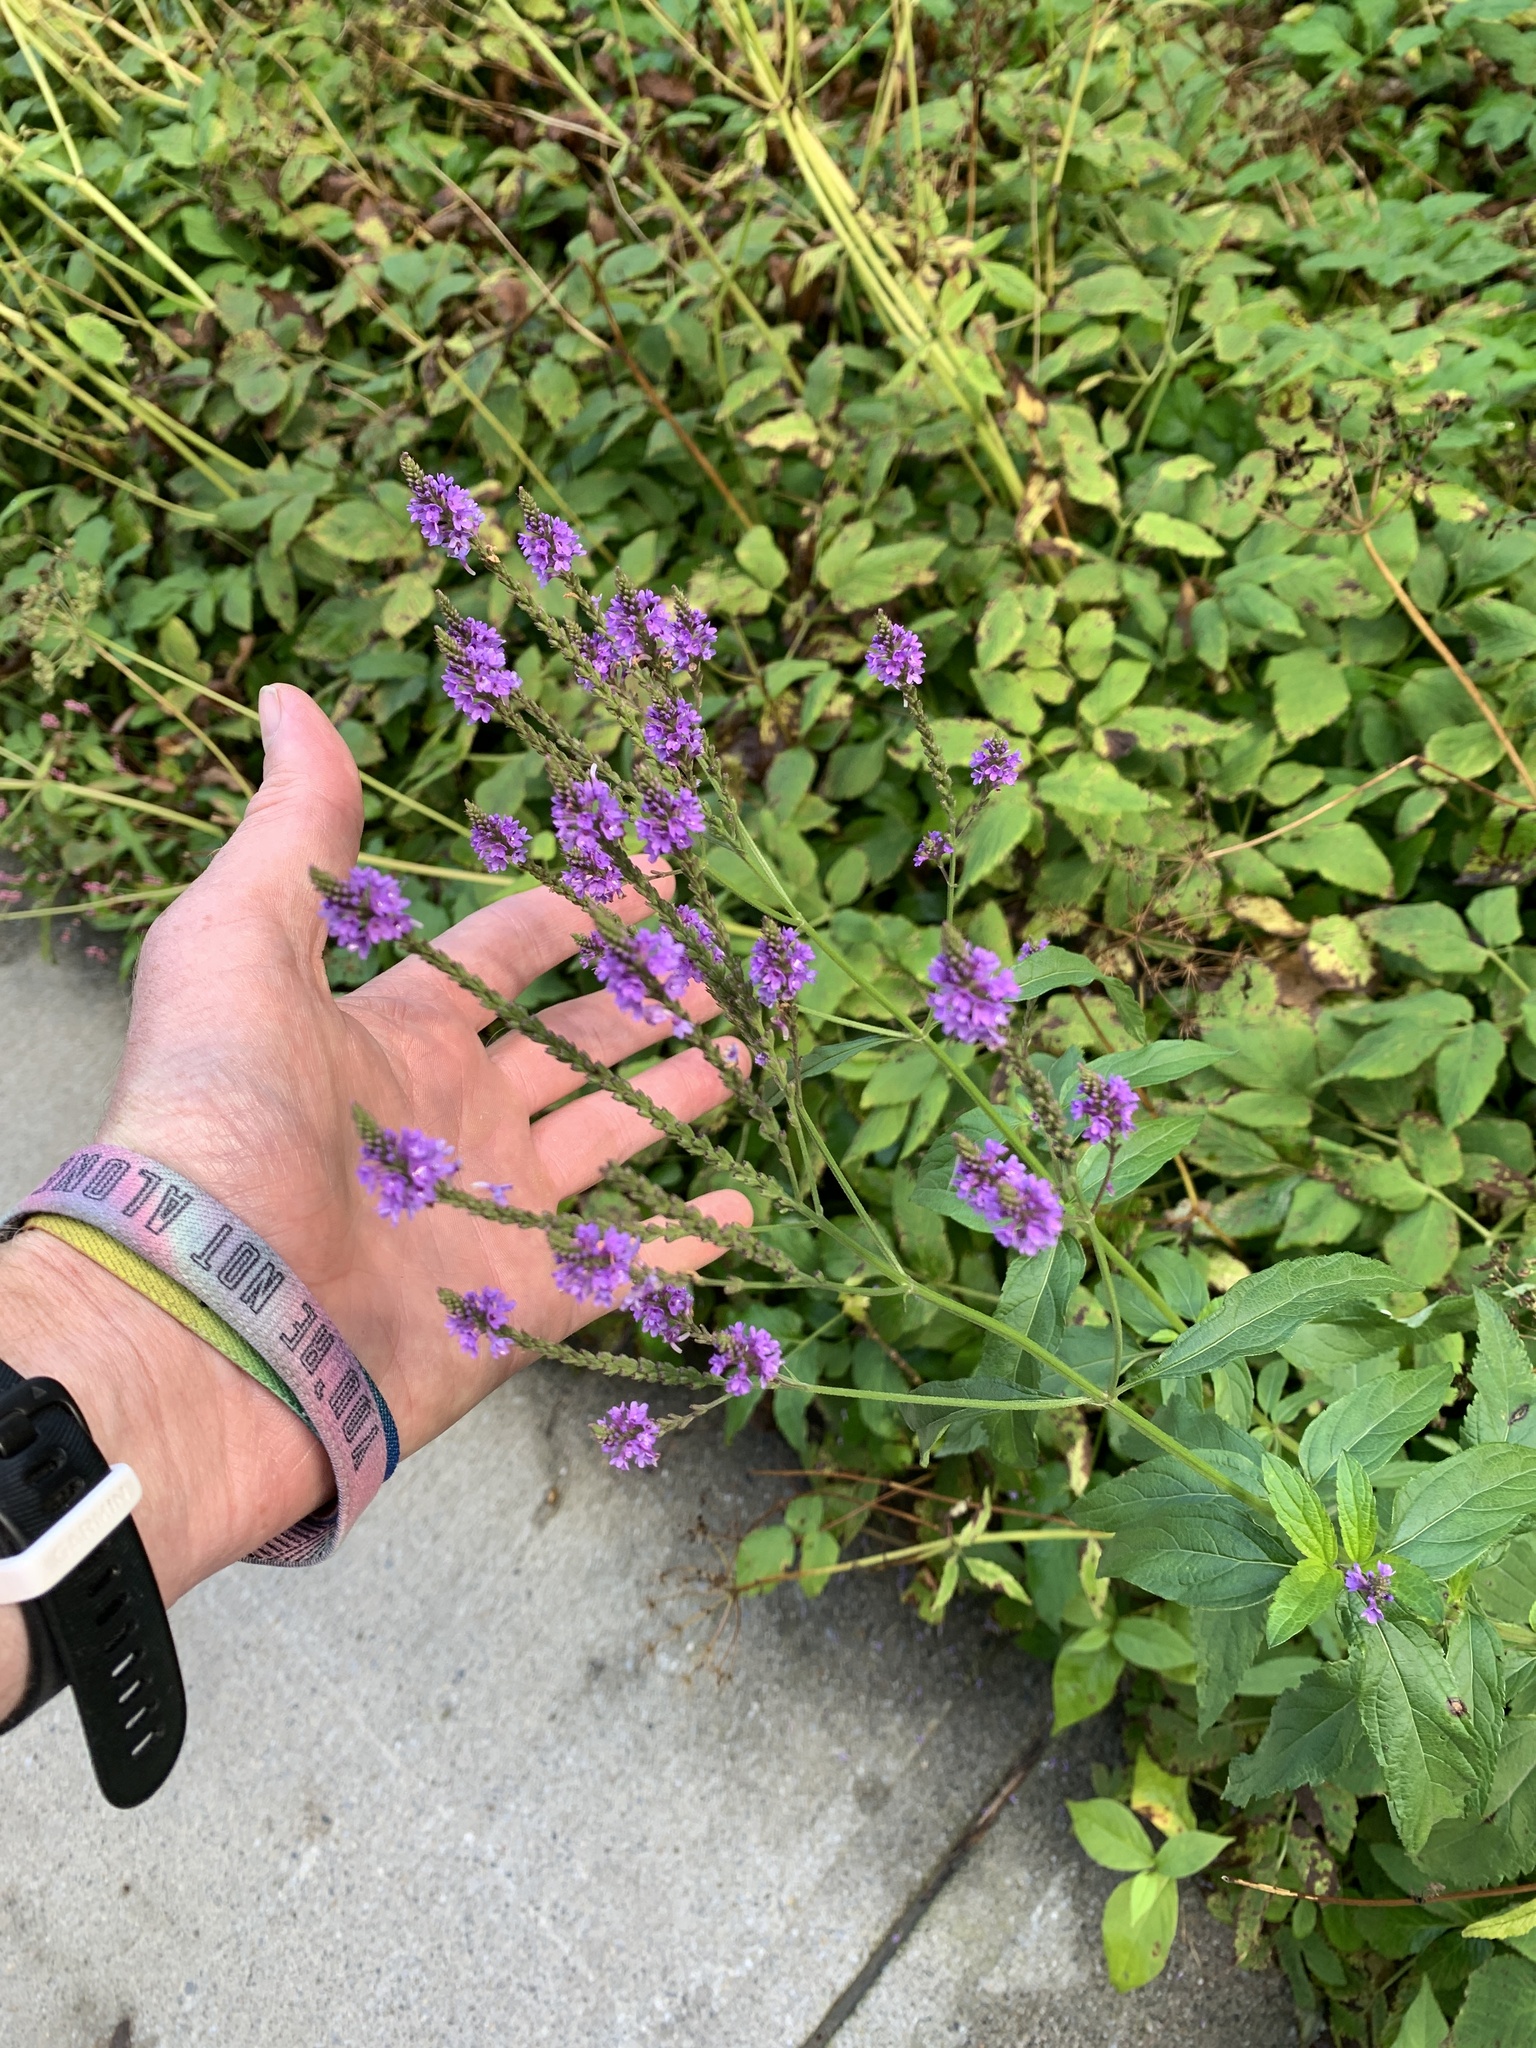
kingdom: Plantae
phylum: Tracheophyta
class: Magnoliopsida
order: Lamiales
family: Verbenaceae
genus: Verbena
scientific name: Verbena hastata
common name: American blue vervain
